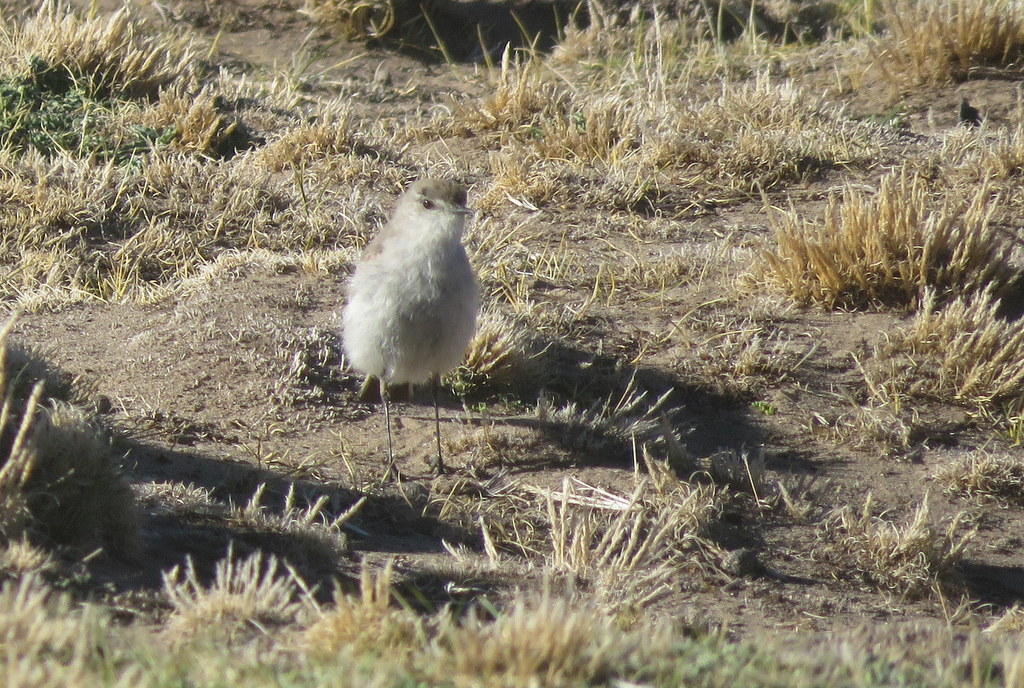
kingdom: Animalia
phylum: Chordata
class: Aves
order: Passeriformes
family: Tyrannidae
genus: Muscisaxicola
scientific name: Muscisaxicola juninensis
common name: Puna ground tyrant
